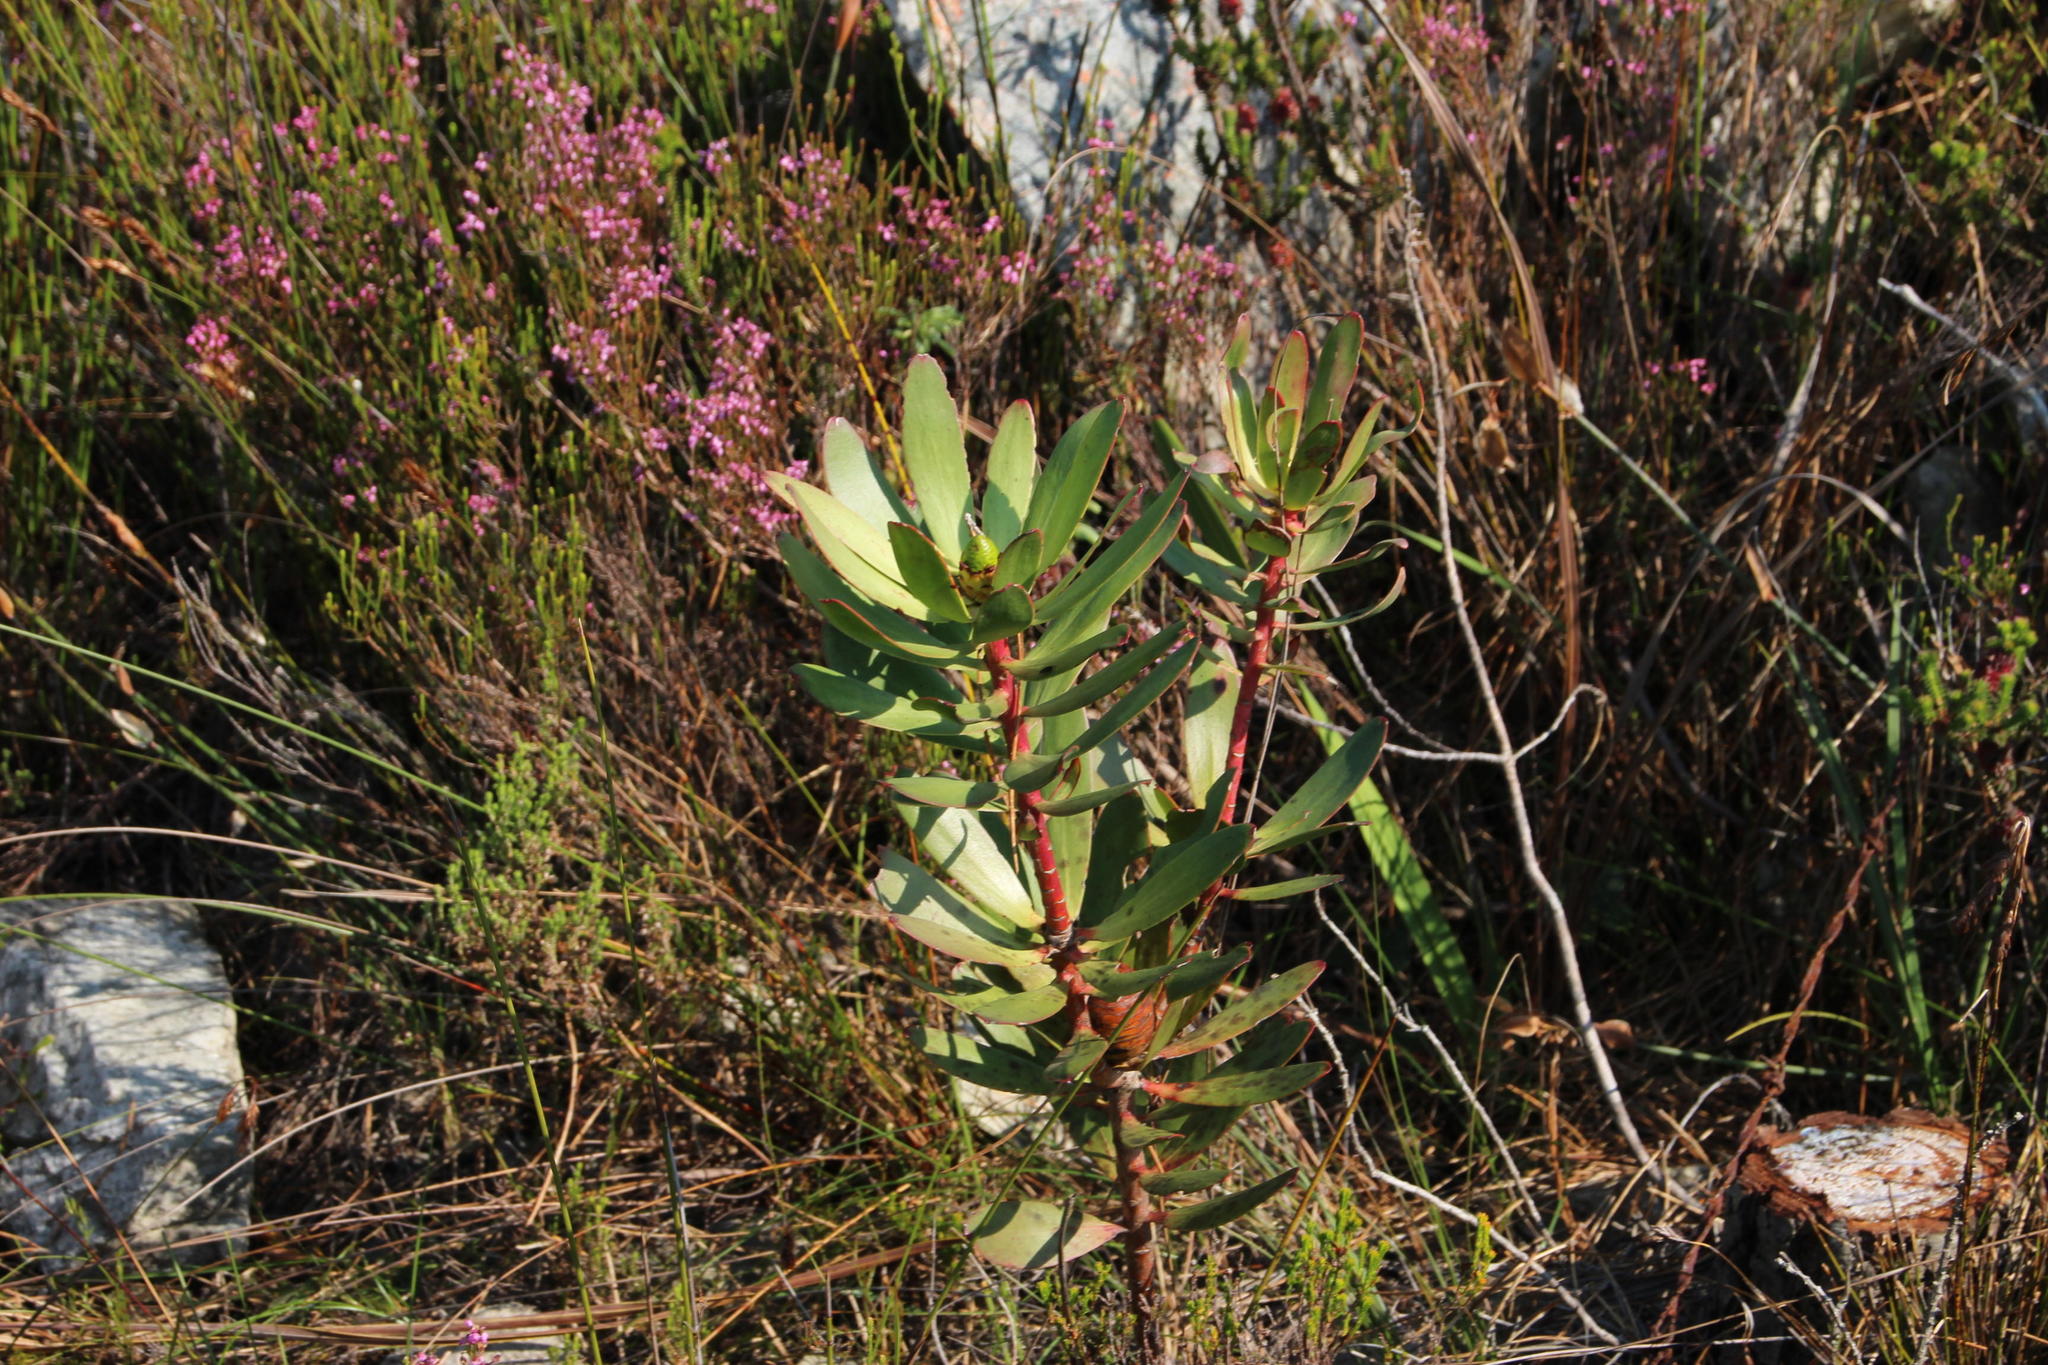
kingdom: Plantae
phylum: Tracheophyta
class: Magnoliopsida
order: Proteales
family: Proteaceae
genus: Leucadendron
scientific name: Leucadendron gandogeri
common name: Broad-leaf conebush
